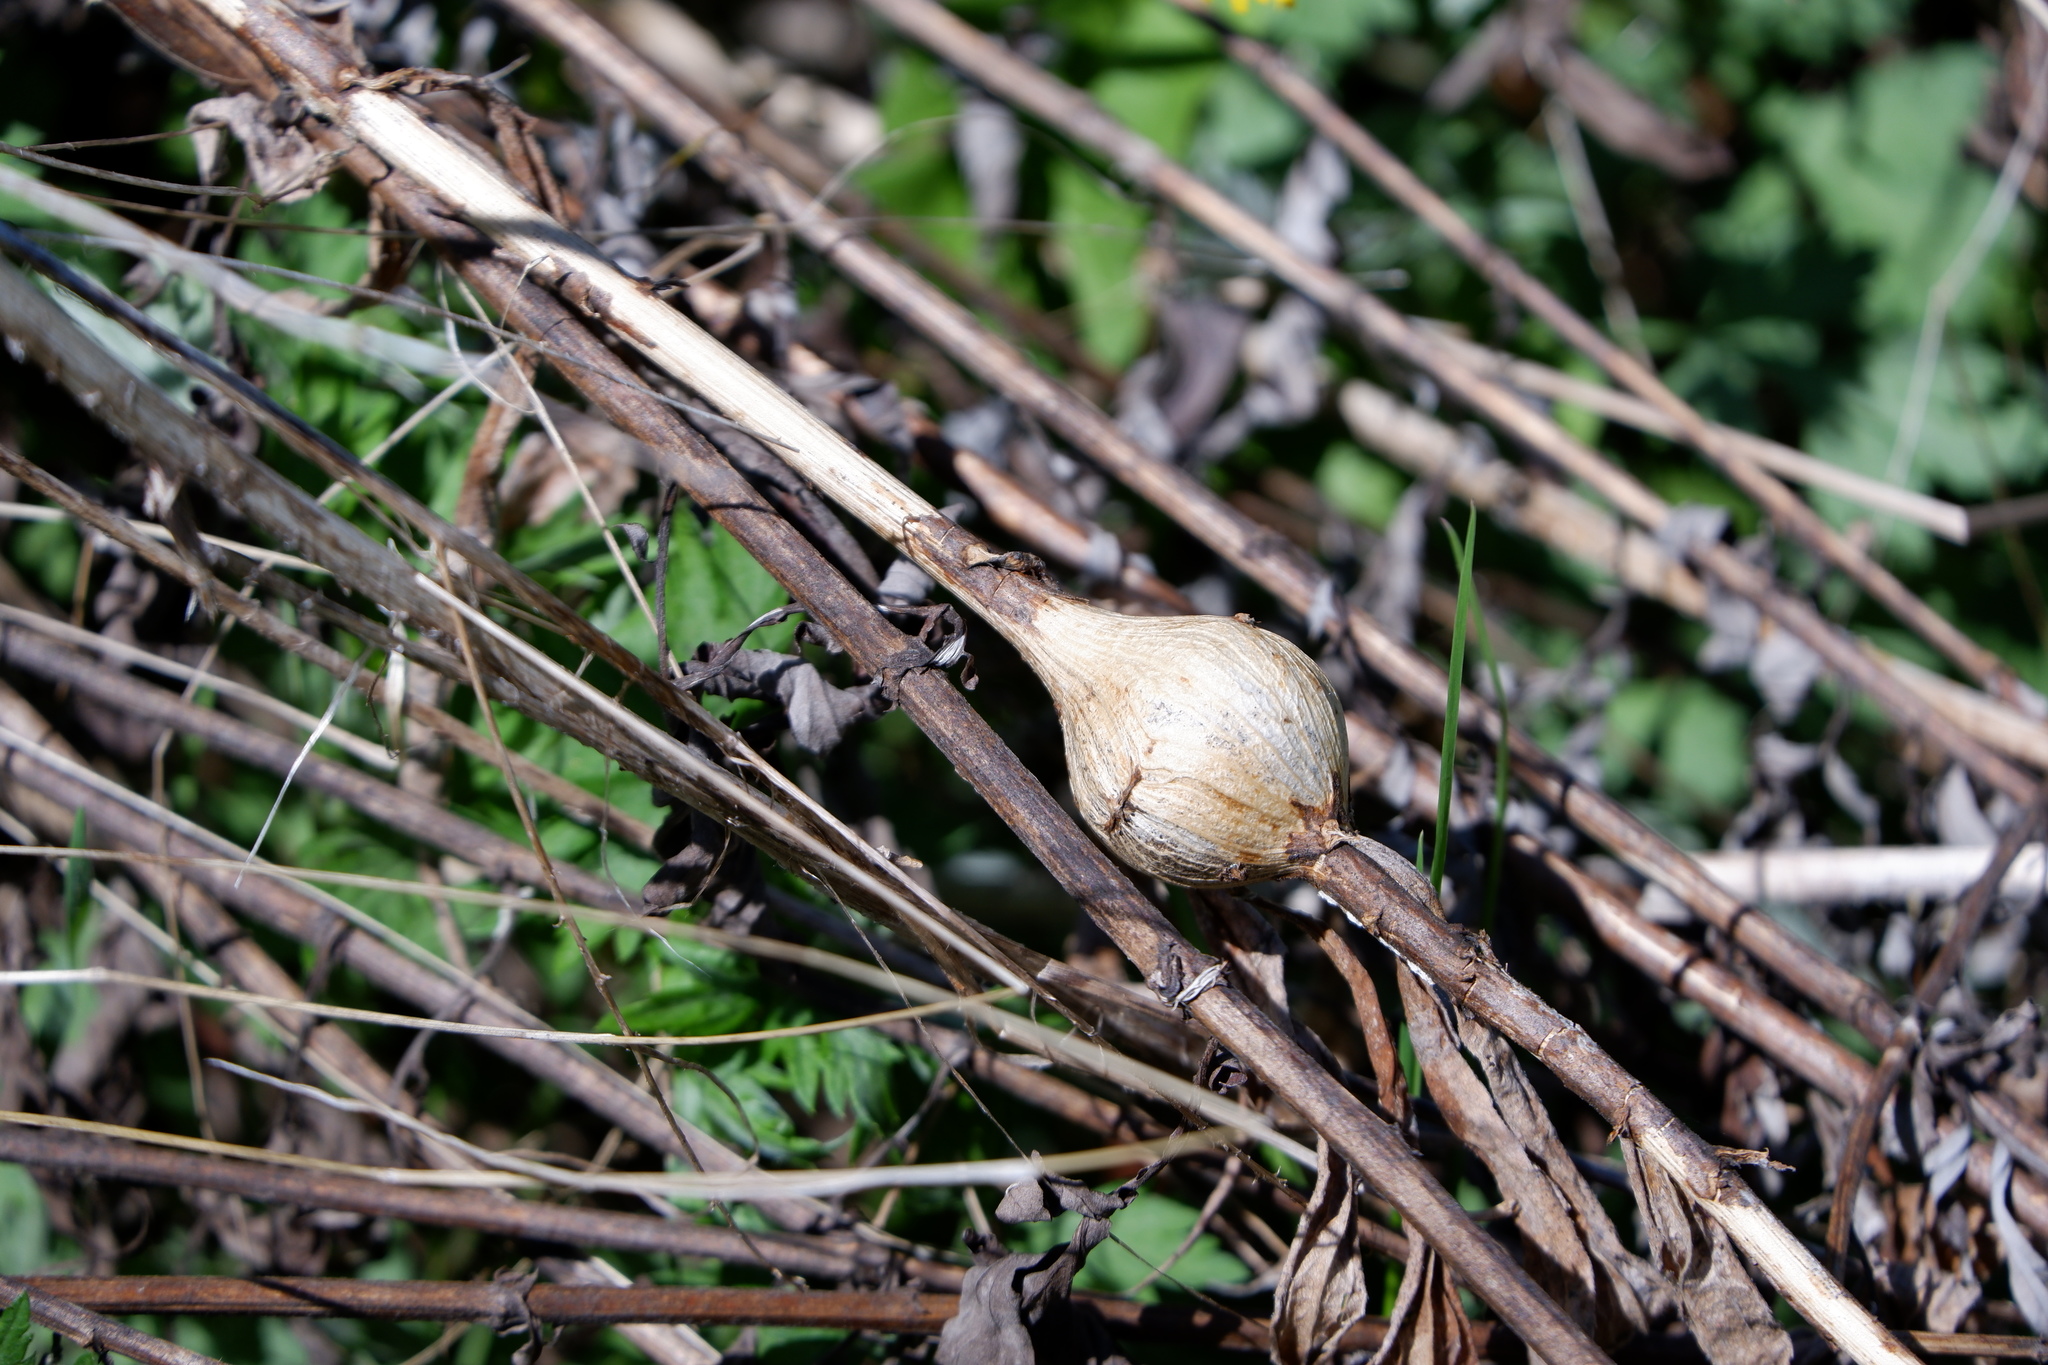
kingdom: Animalia
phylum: Arthropoda
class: Insecta
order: Diptera
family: Tephritidae
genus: Eurosta
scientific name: Eurosta solidaginis
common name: Goldenrod gall fly
